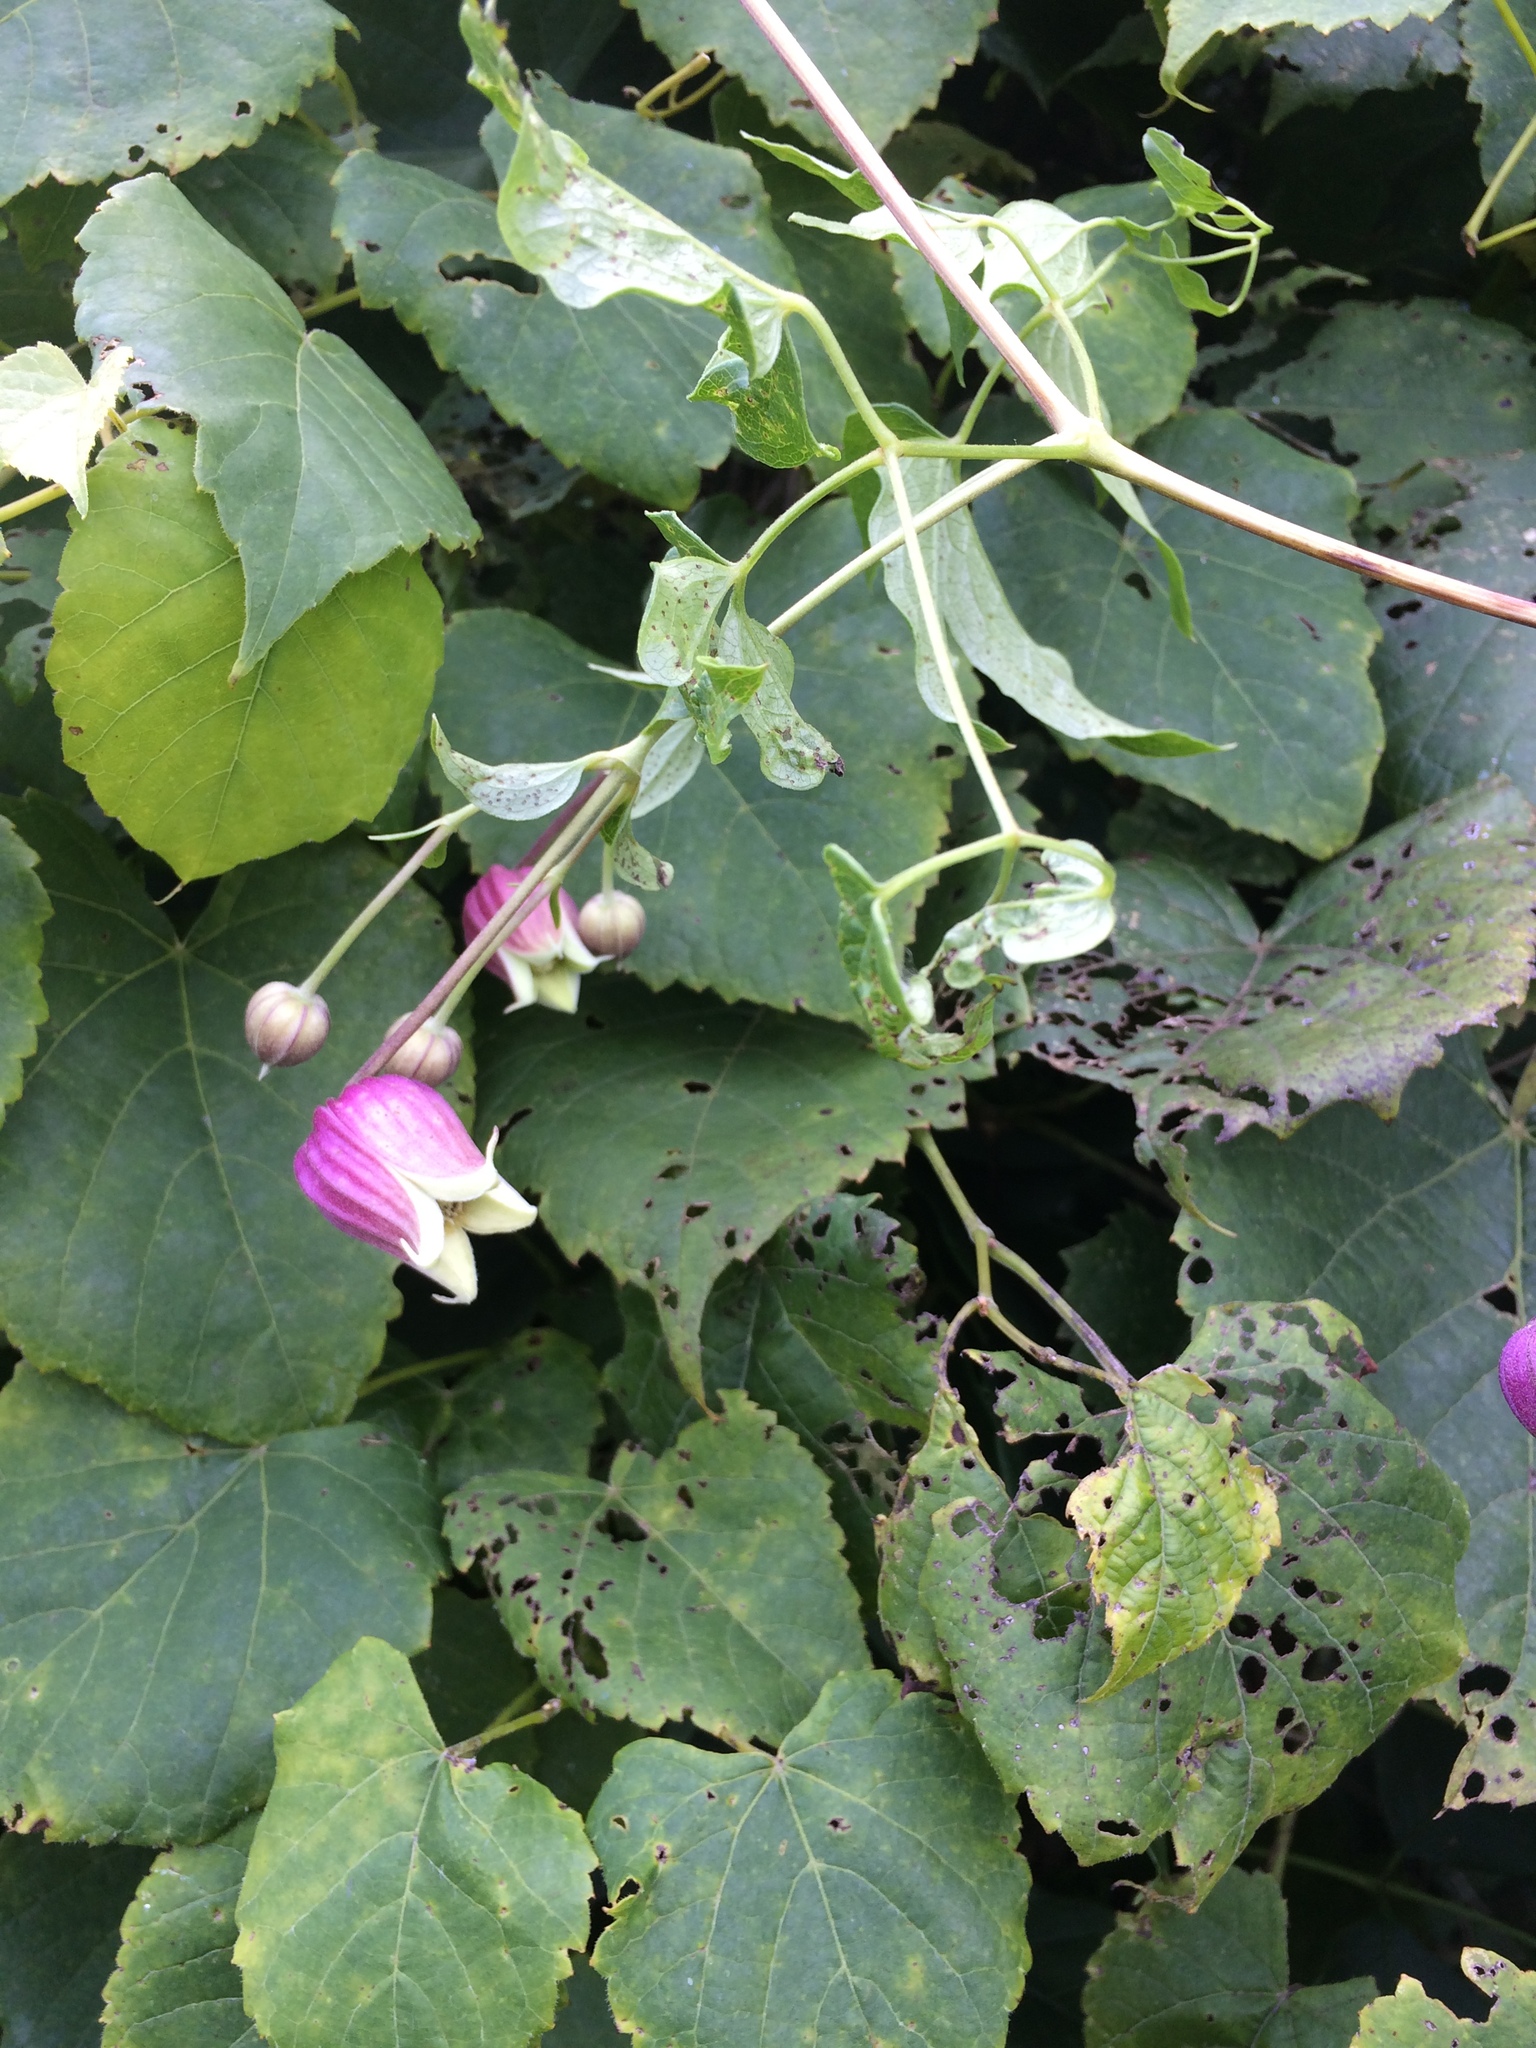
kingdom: Plantae
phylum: Tracheophyta
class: Magnoliopsida
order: Ranunculales
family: Ranunculaceae
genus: Clematis
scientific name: Clematis viorna
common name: Leather-flower
